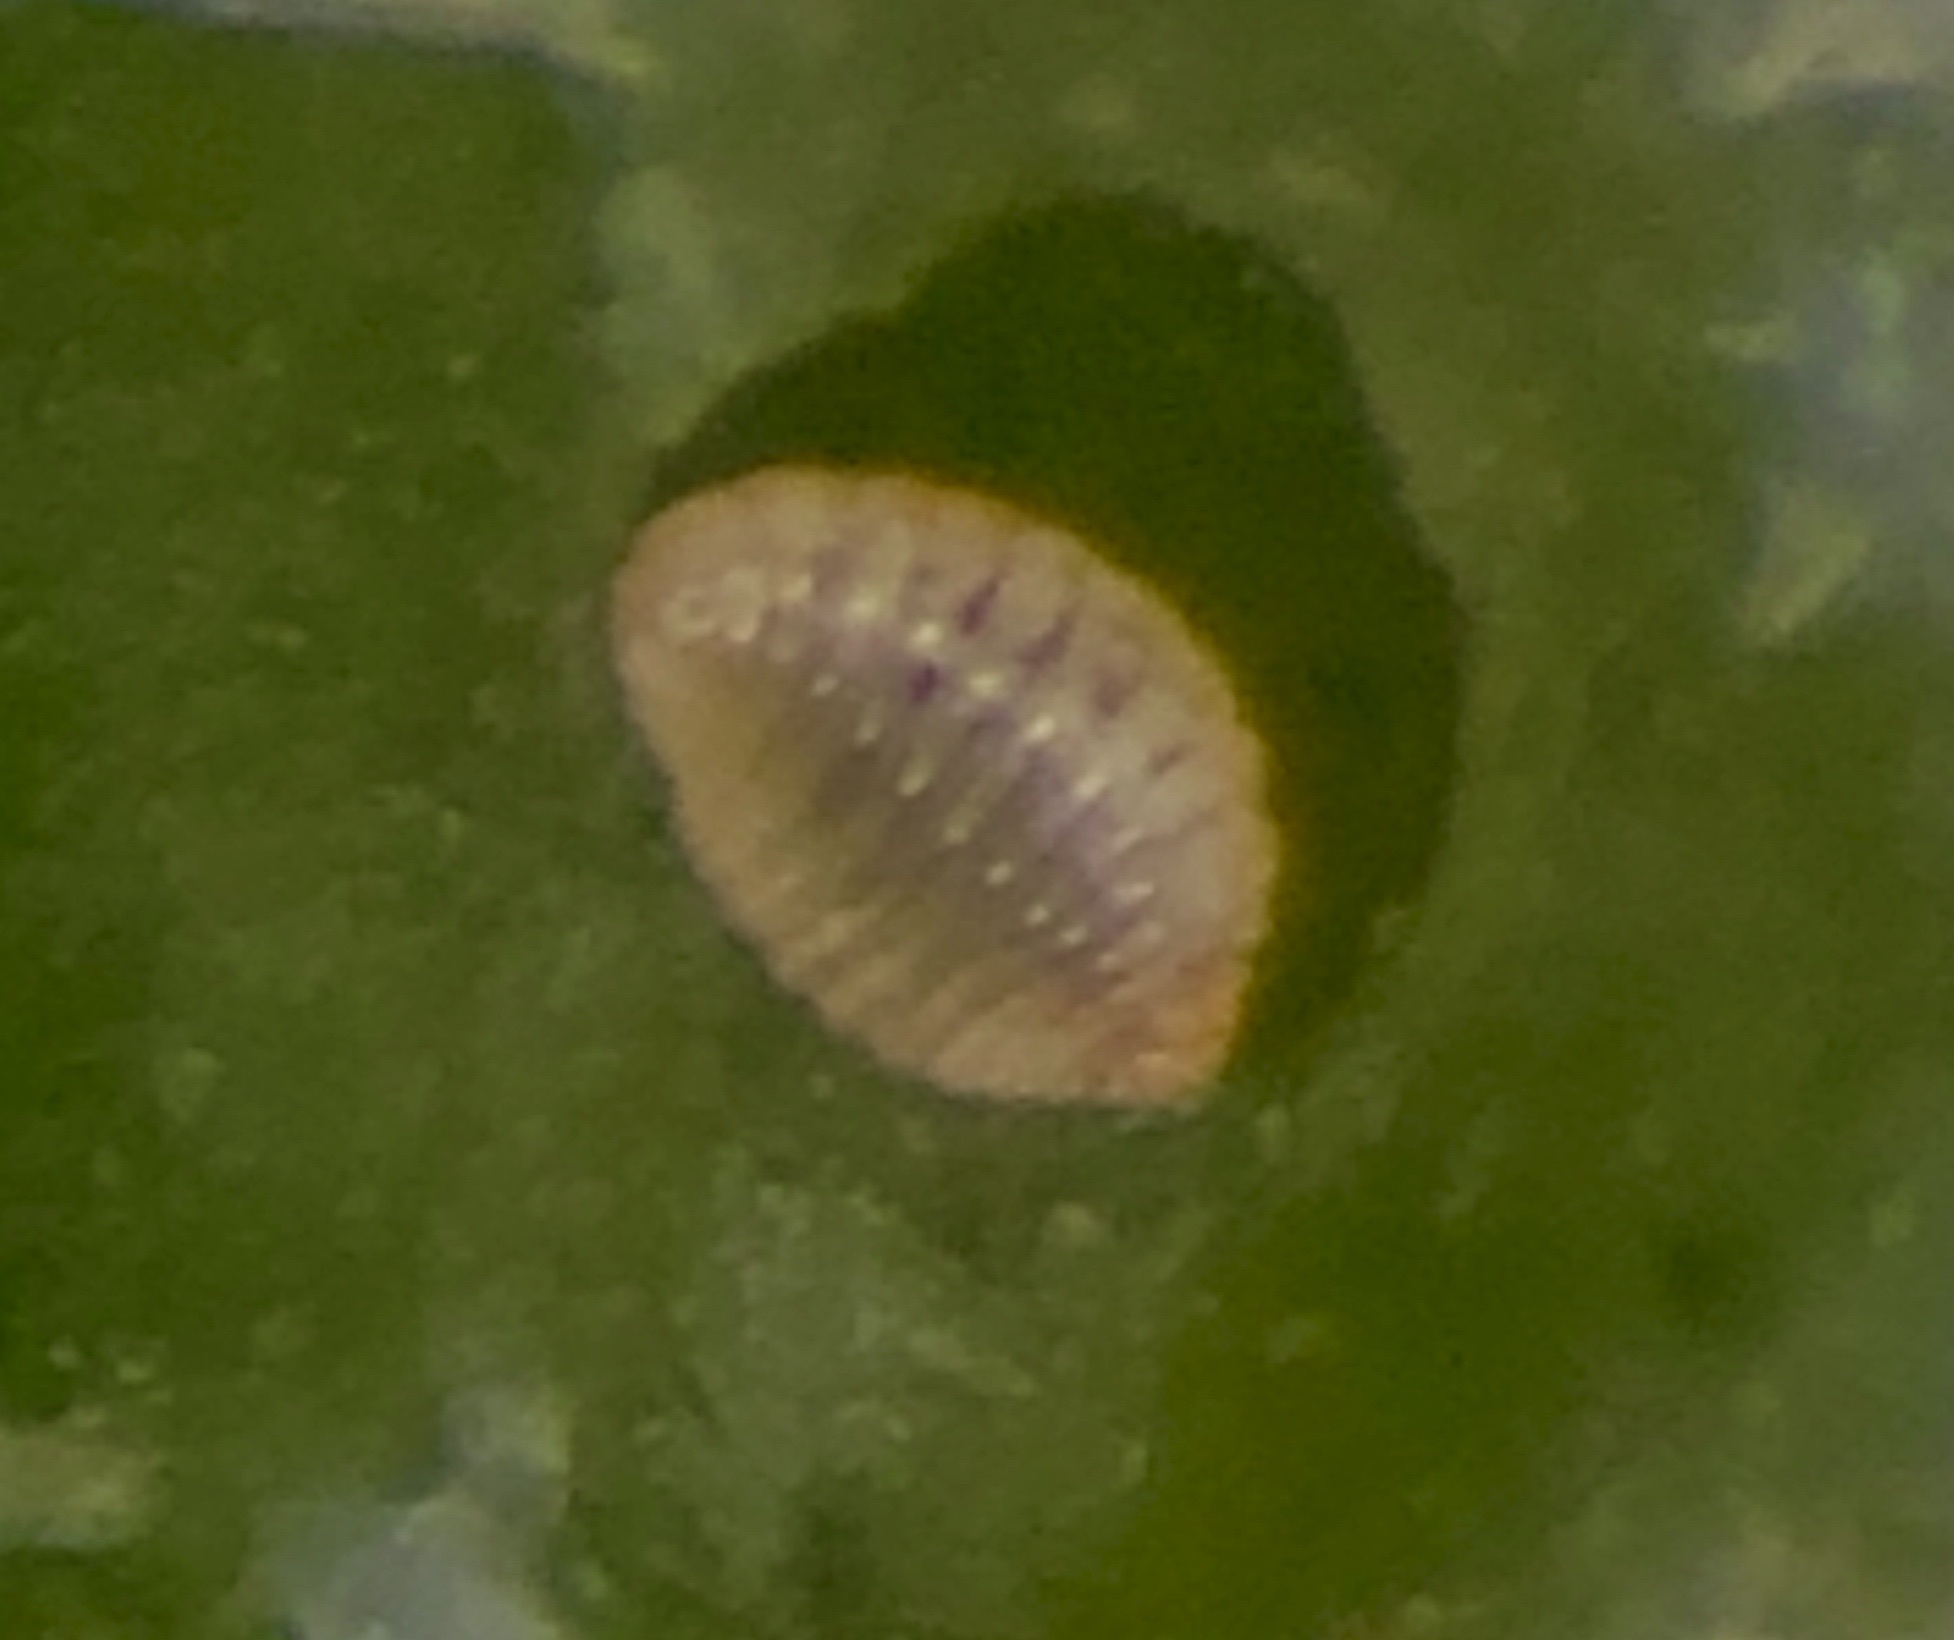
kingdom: Animalia
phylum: Arthropoda
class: Insecta
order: Diptera
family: Cecidomyiidae
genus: Caryomyia
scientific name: Caryomyia albipilosa
